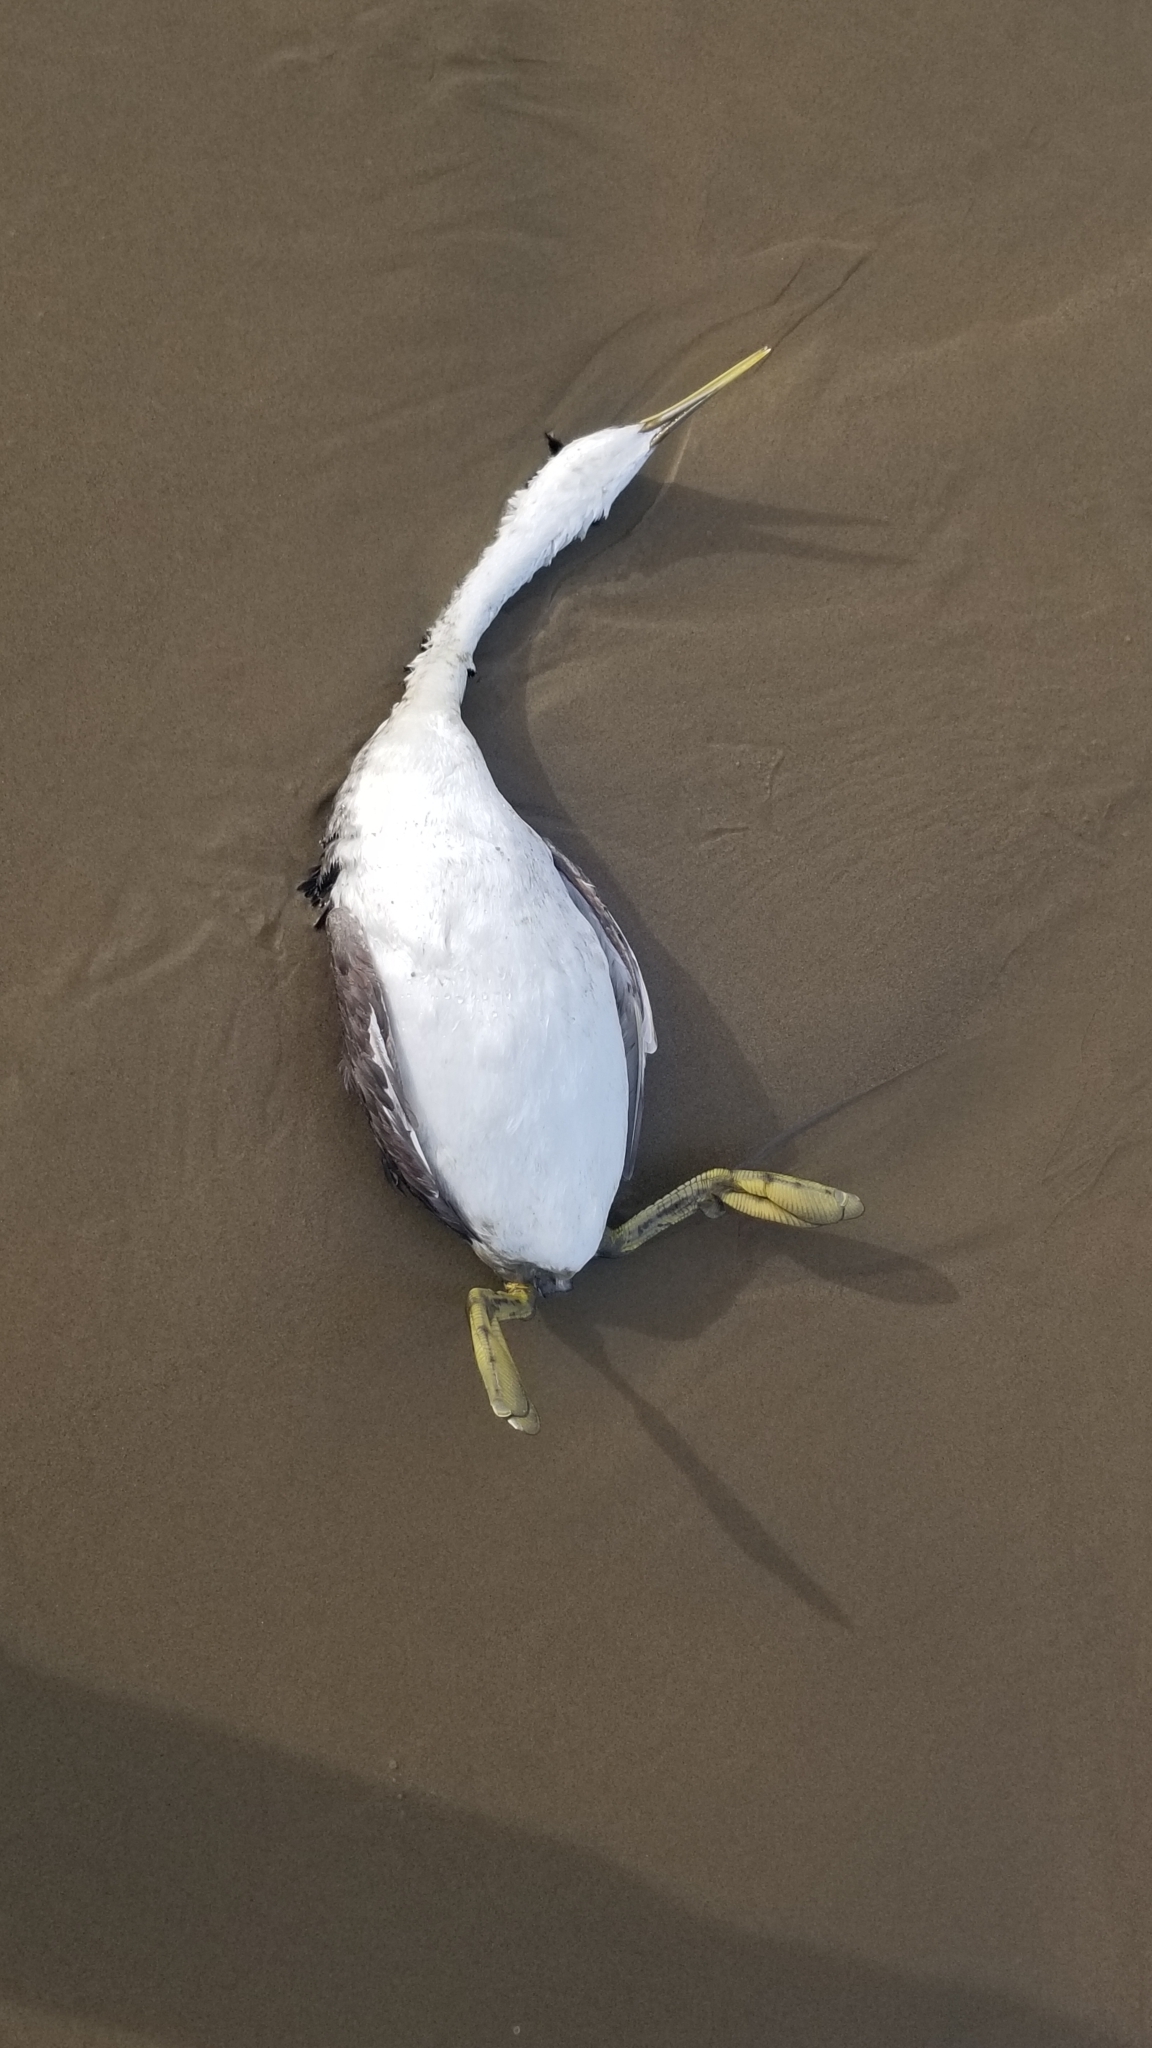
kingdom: Animalia
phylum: Chordata
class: Aves
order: Podicipediformes
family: Podicipedidae
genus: Aechmophorus
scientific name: Aechmophorus occidentalis
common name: Western grebe
